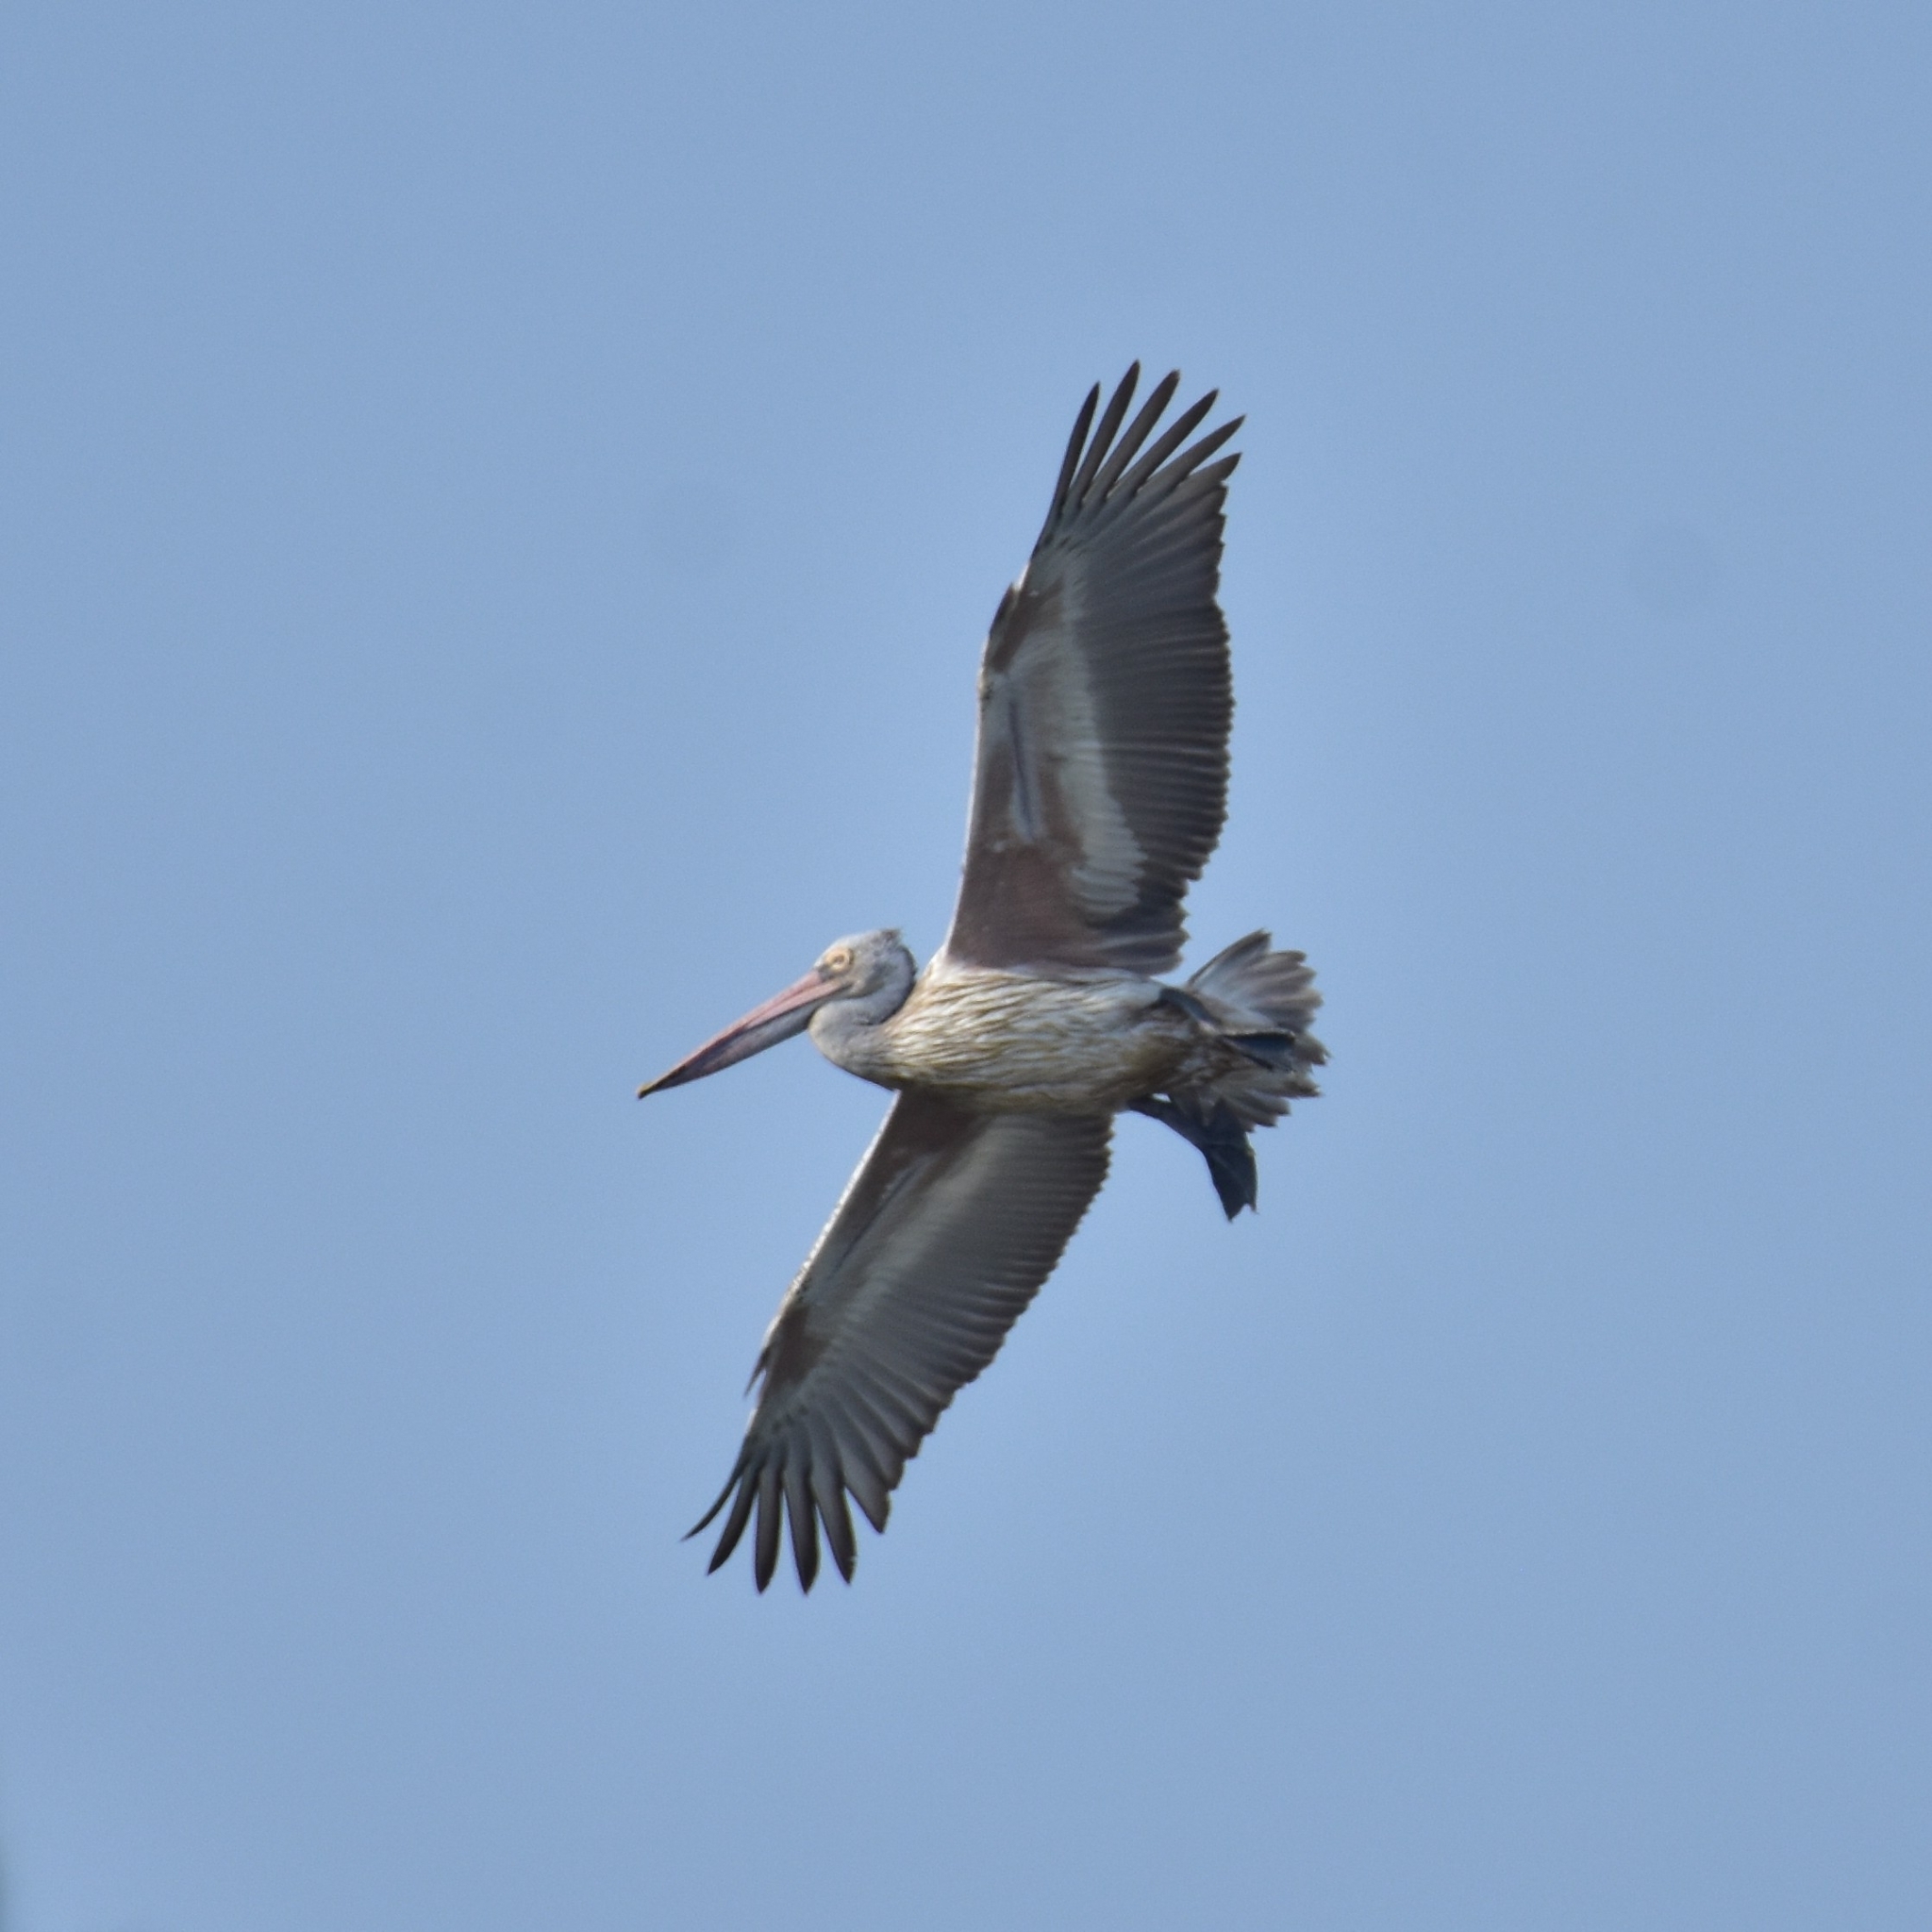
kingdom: Animalia
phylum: Chordata
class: Aves
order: Pelecaniformes
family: Pelecanidae
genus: Pelecanus
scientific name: Pelecanus philippensis
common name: Spot-billed pelican
